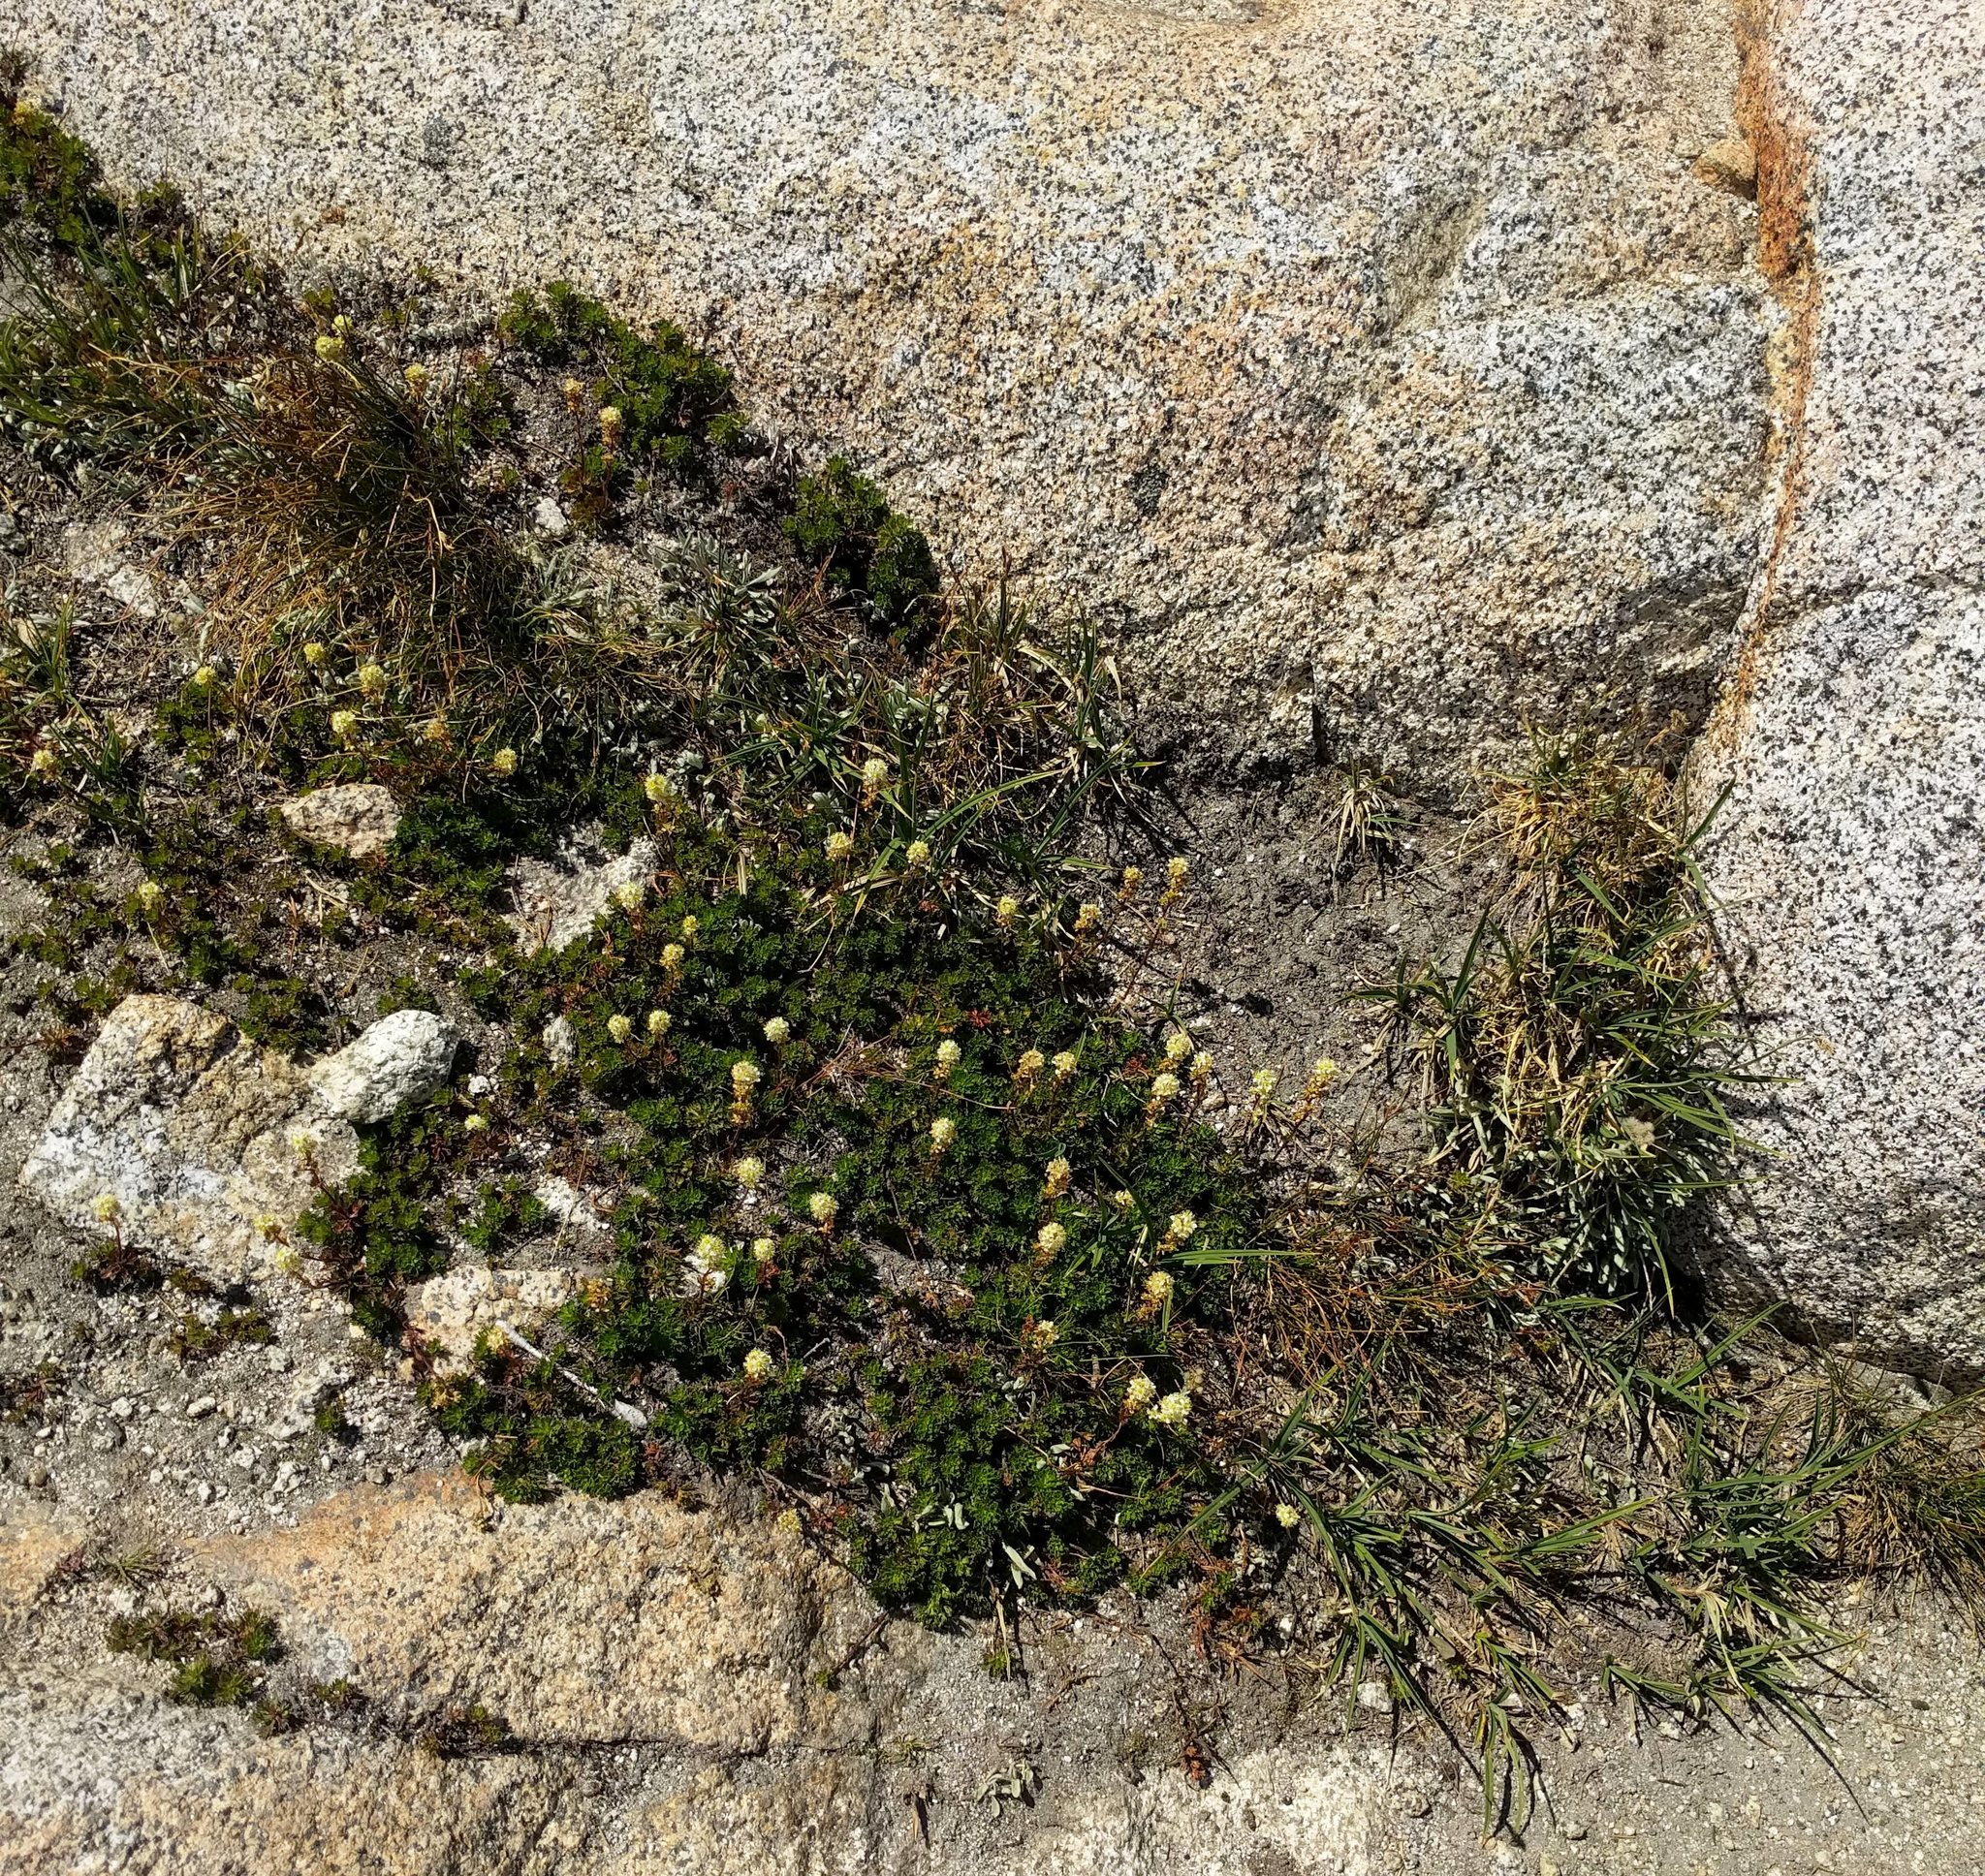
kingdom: Plantae
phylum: Tracheophyta
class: Magnoliopsida
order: Rosales
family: Rosaceae
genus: Luetkea
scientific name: Luetkea pectinata
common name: Partridgefoot
